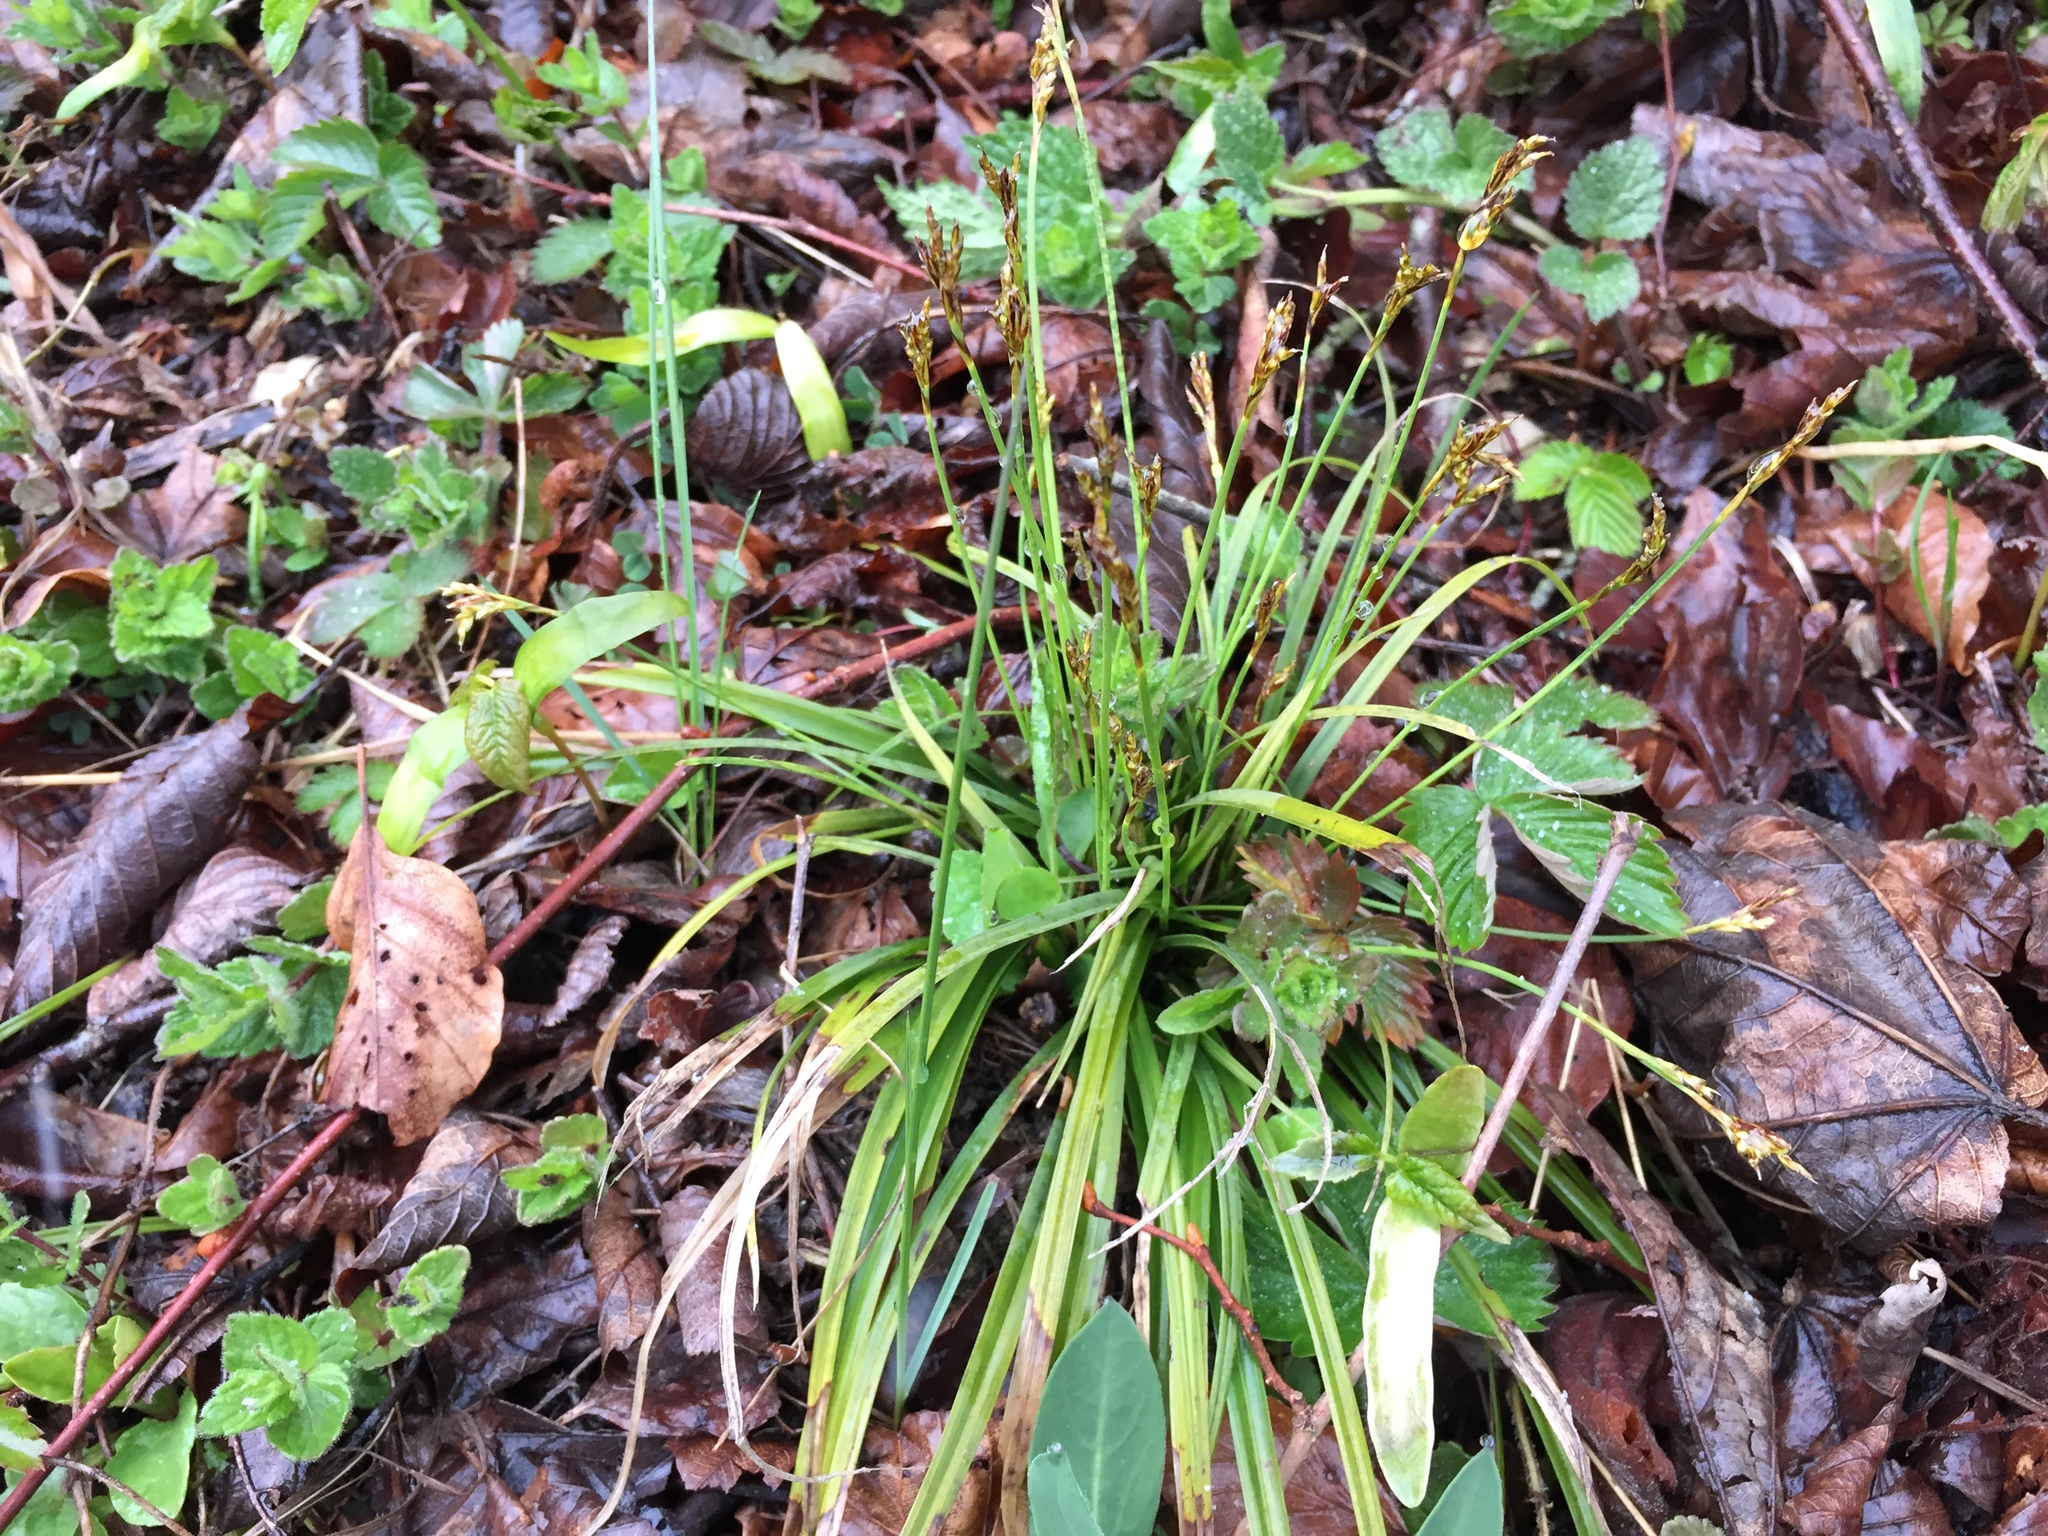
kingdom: Plantae
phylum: Tracheophyta
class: Liliopsida
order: Poales
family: Cyperaceae
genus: Carex
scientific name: Carex digitata
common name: Fingered sedge
